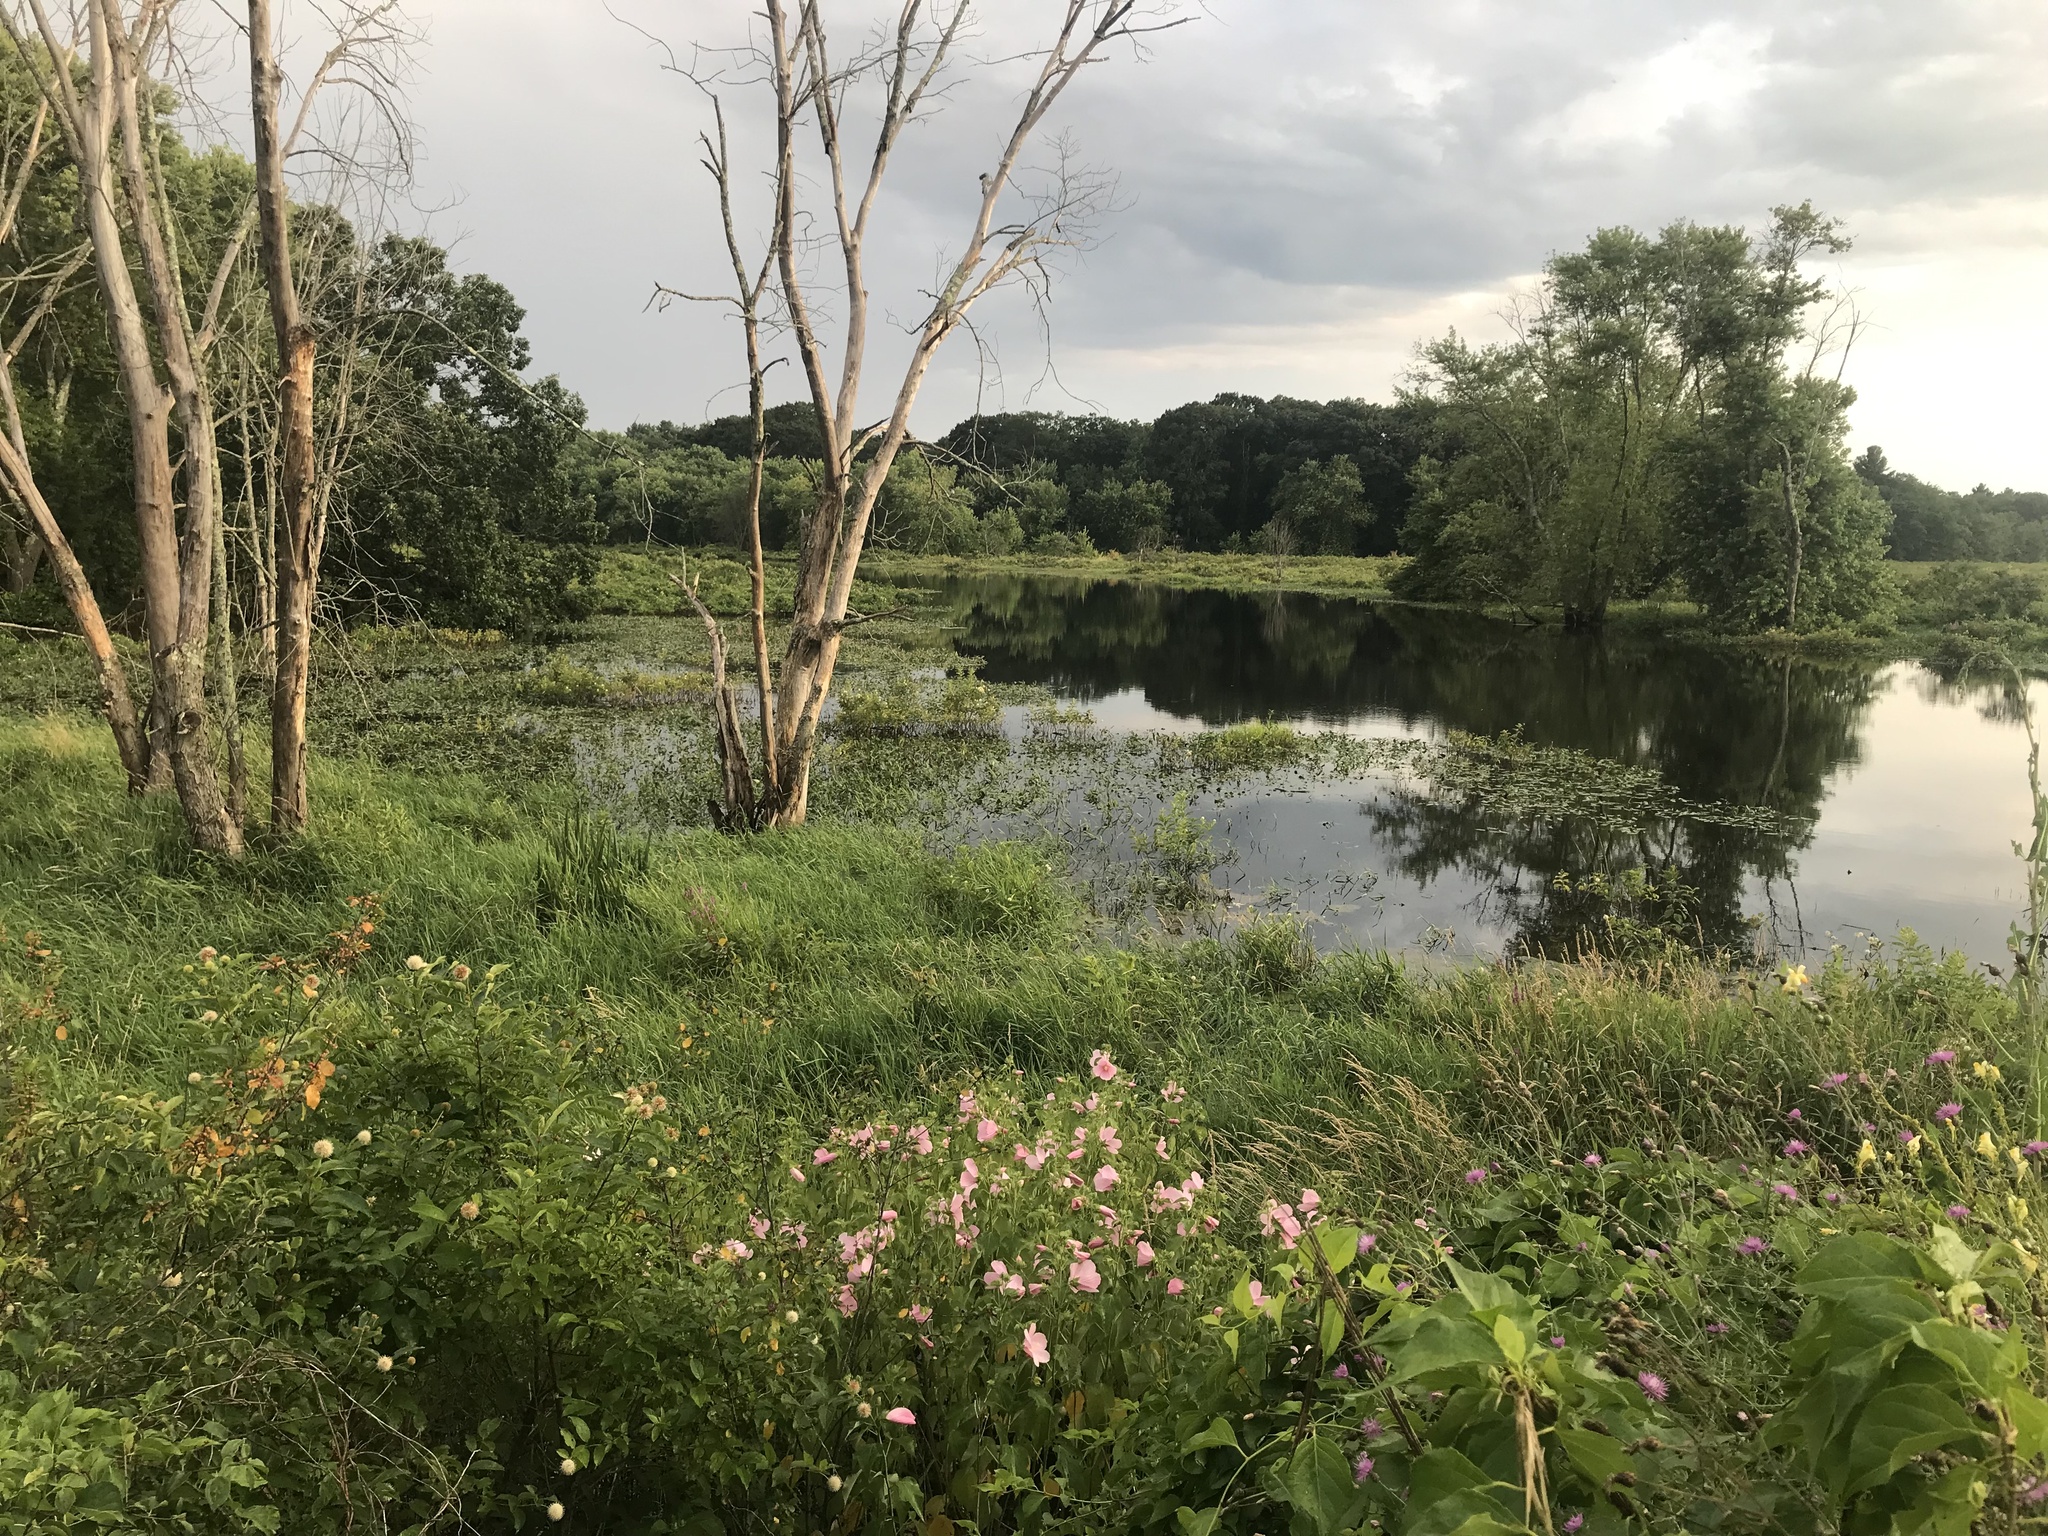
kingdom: Plantae
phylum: Tracheophyta
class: Magnoliopsida
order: Malvales
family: Malvaceae
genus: Hibiscus
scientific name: Hibiscus moscheutos
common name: Common rose-mallow
